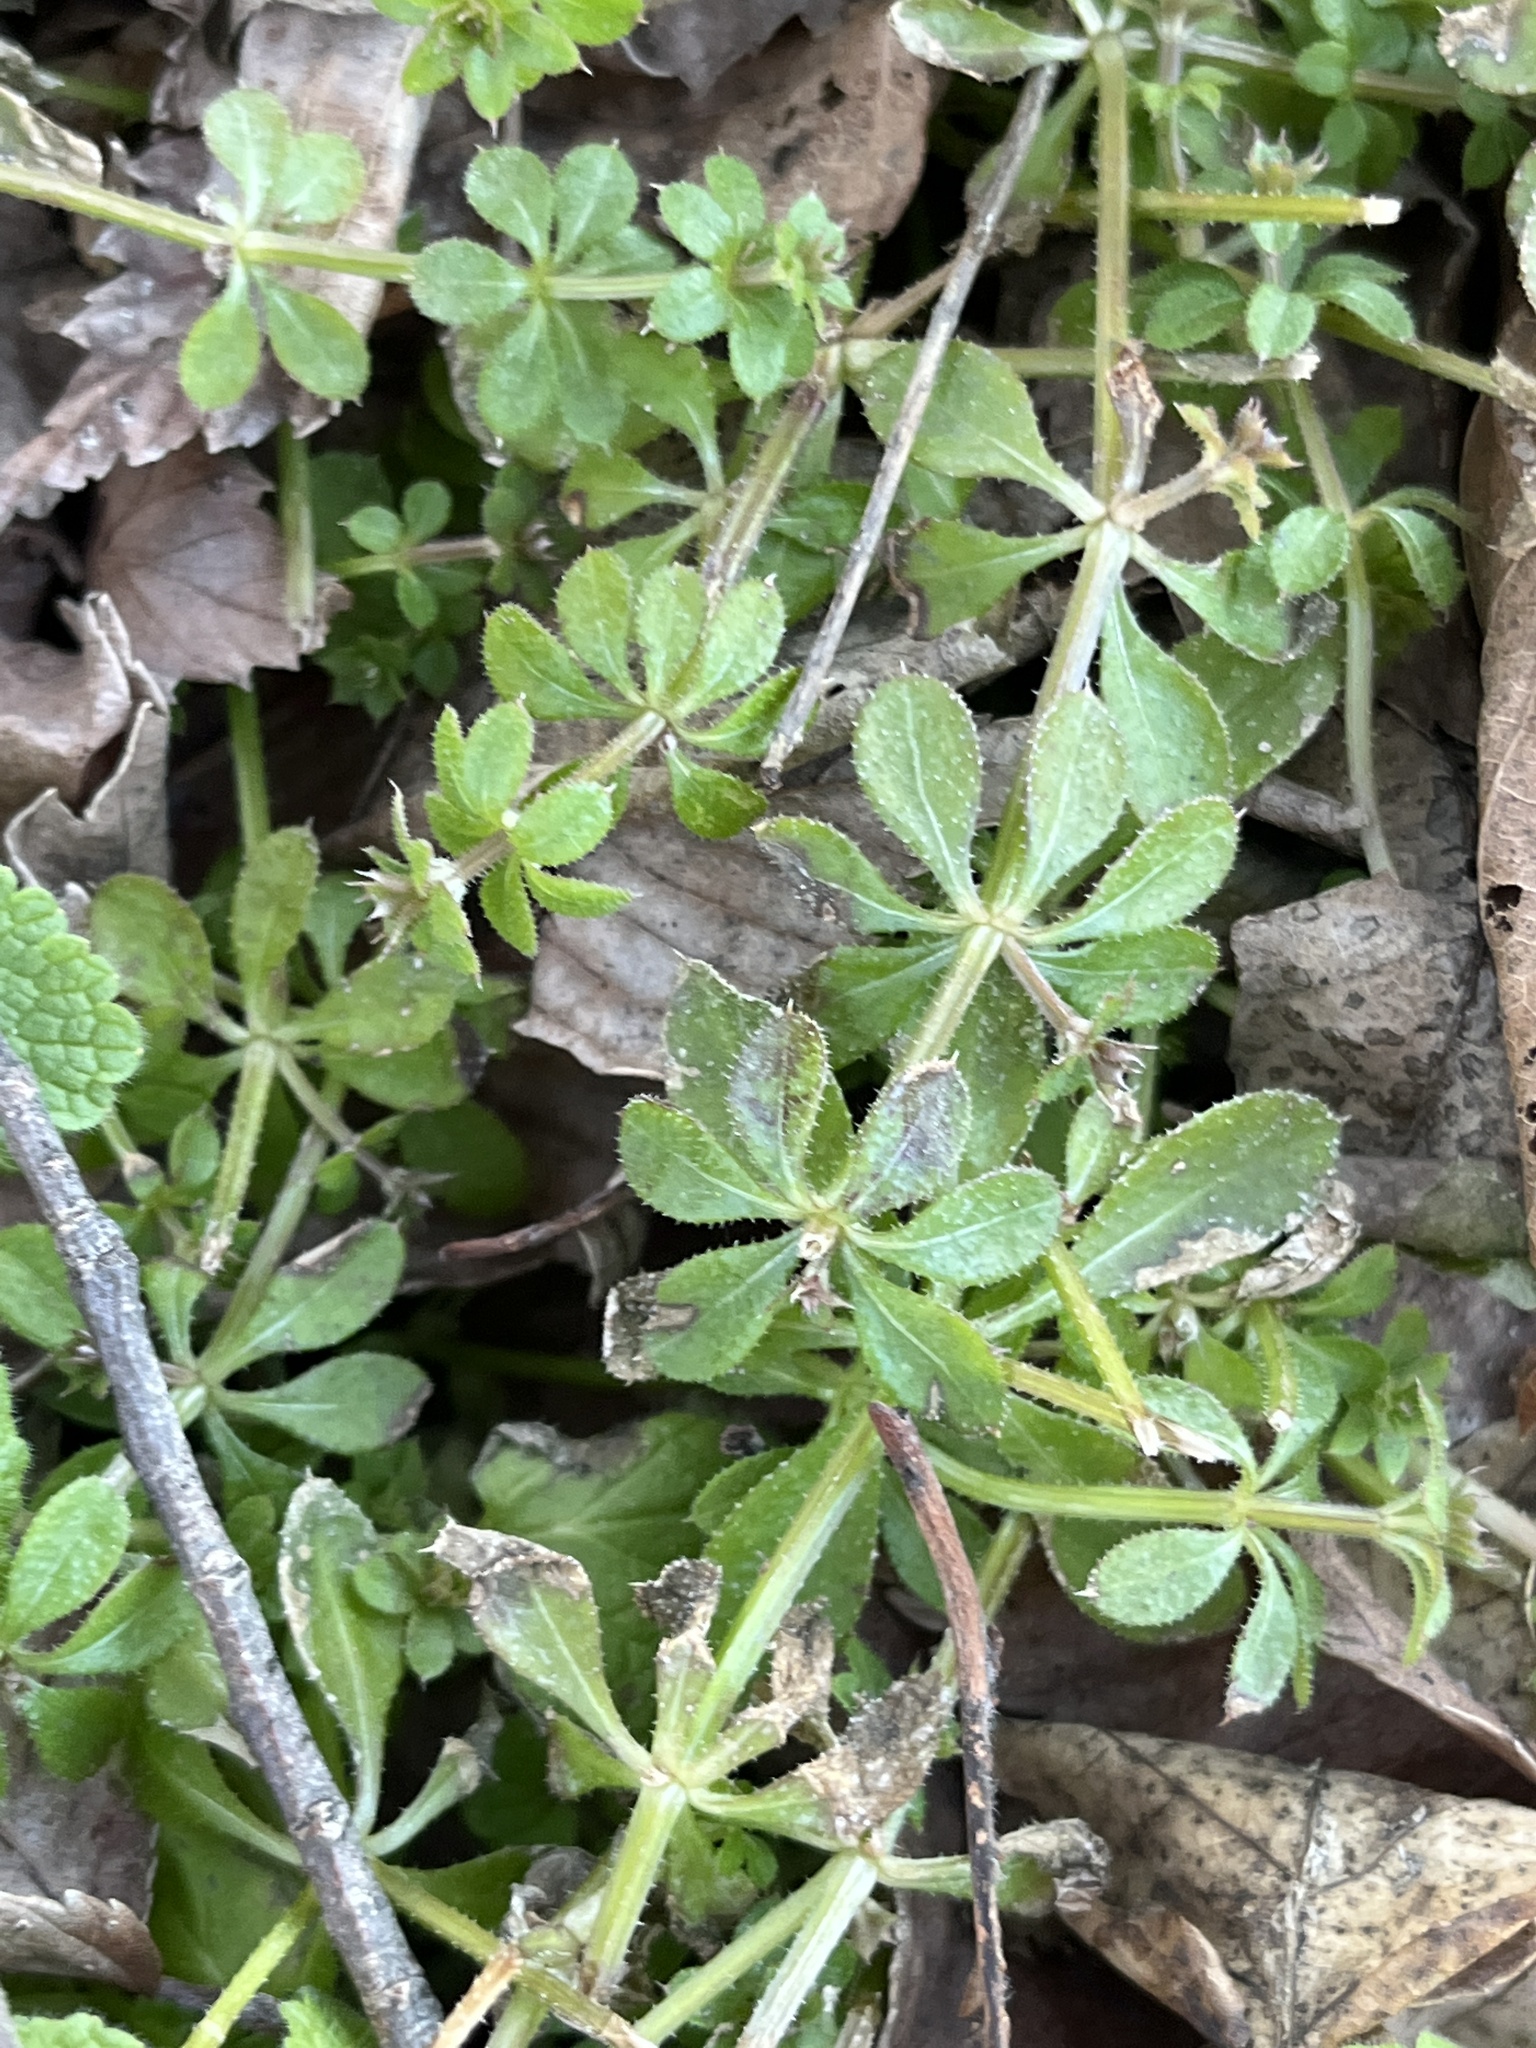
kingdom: Plantae
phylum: Tracheophyta
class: Magnoliopsida
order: Gentianales
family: Rubiaceae
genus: Galium
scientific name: Galium aparine
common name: Cleavers
